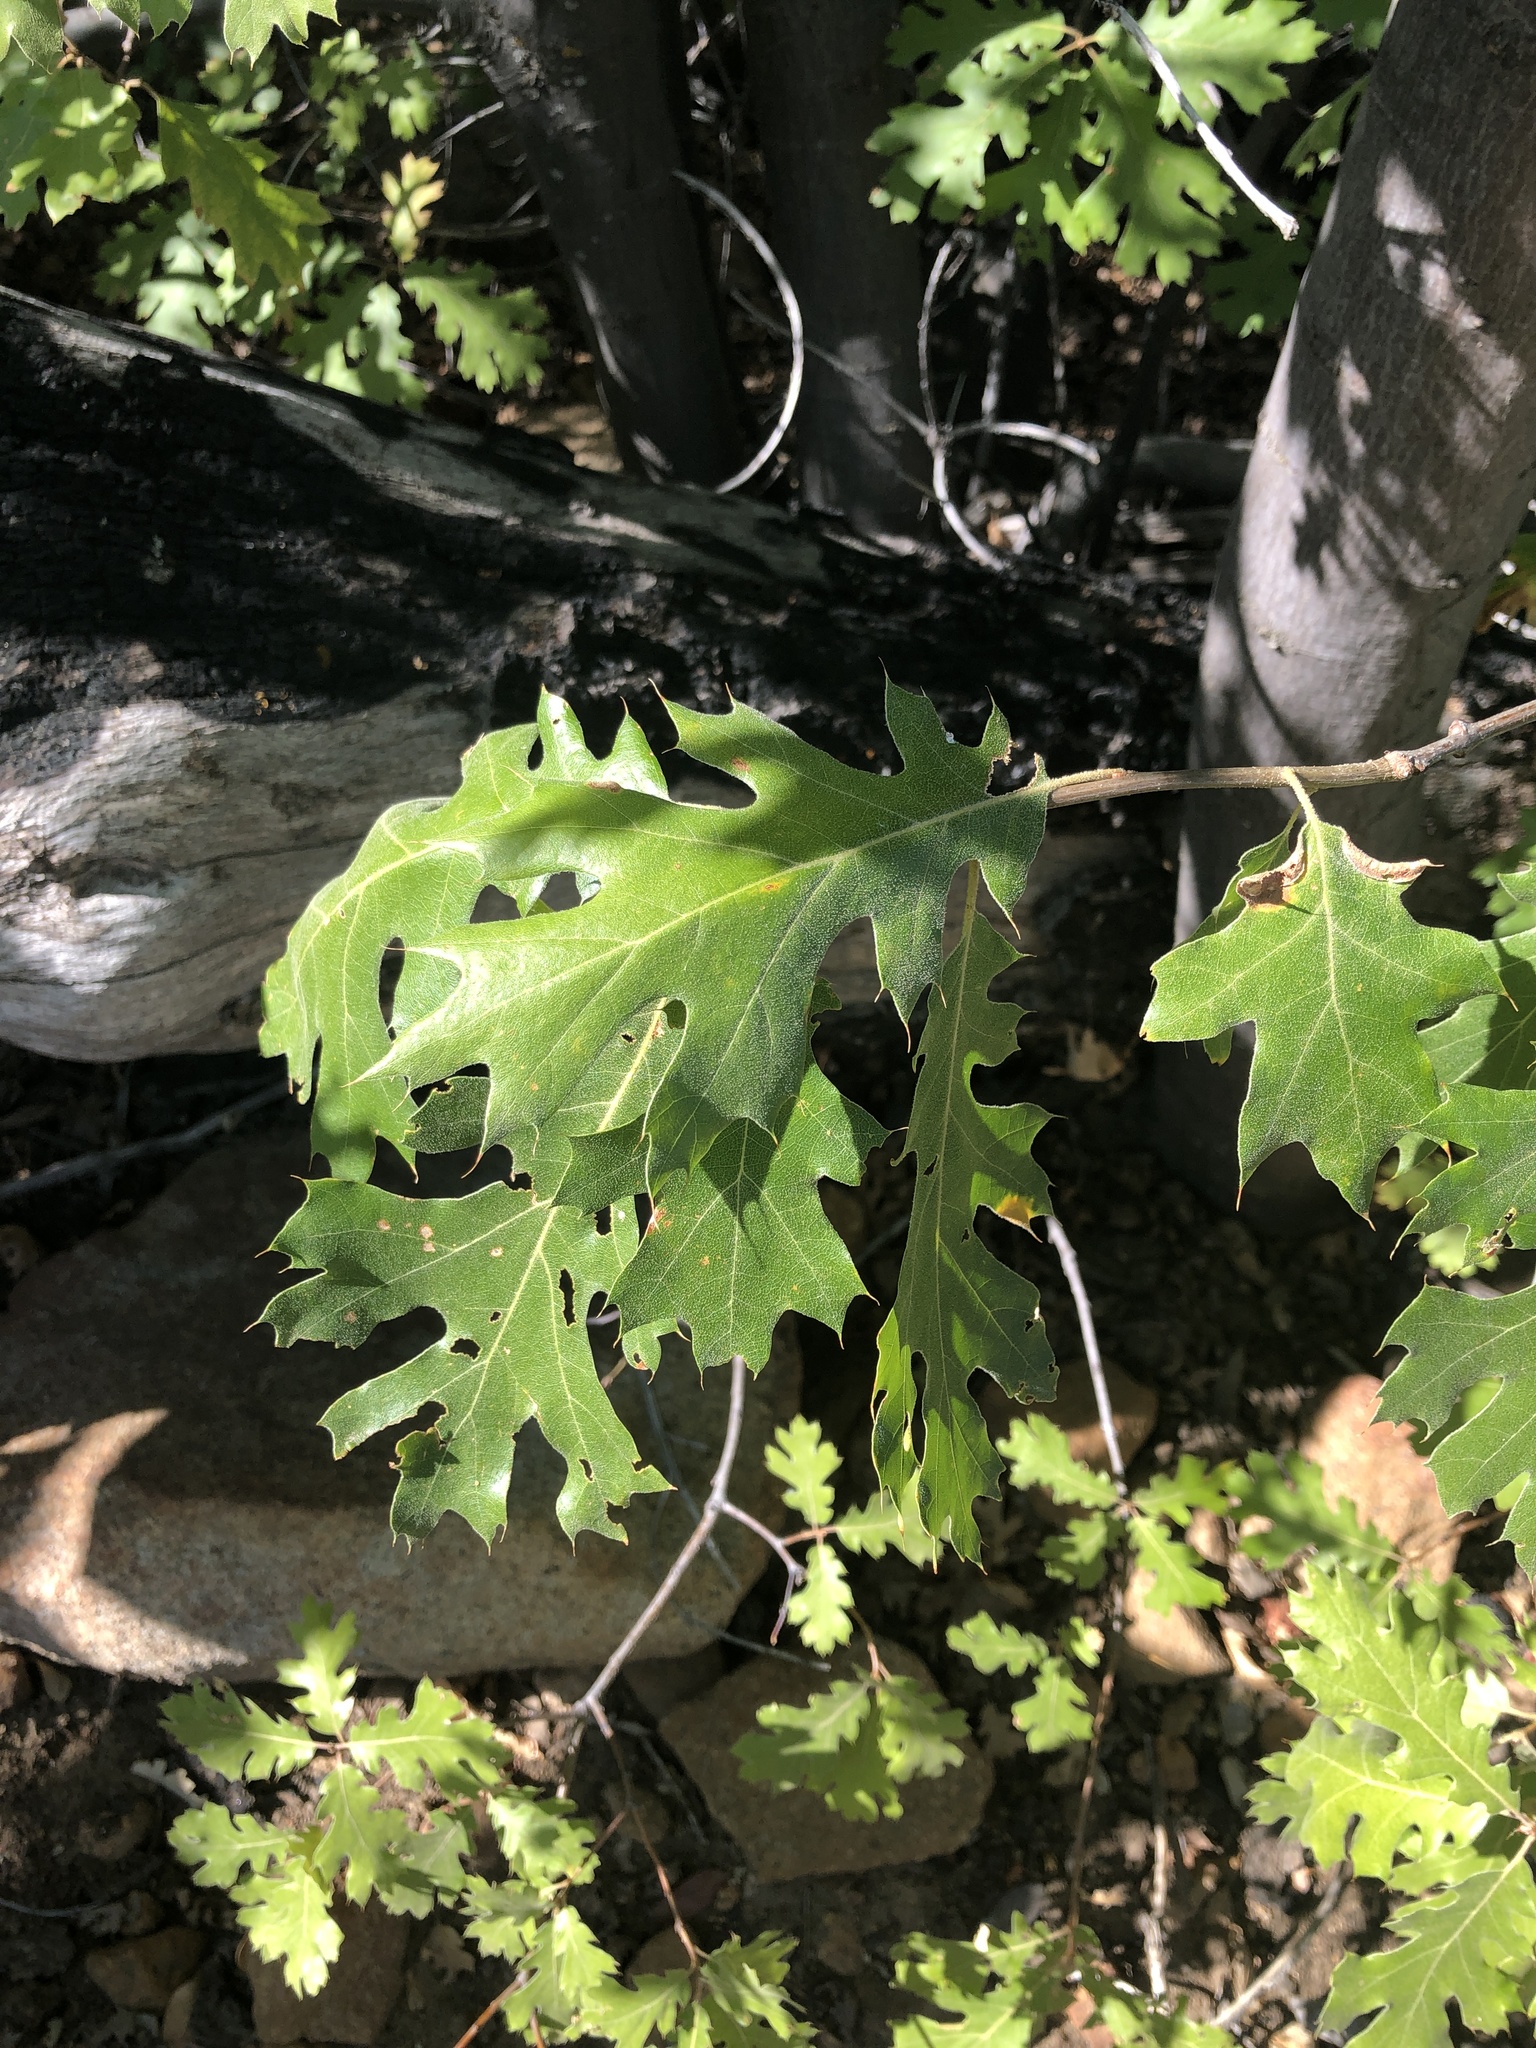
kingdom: Plantae
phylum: Tracheophyta
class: Magnoliopsida
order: Fagales
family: Fagaceae
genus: Quercus
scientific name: Quercus kelloggii
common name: California black oak
